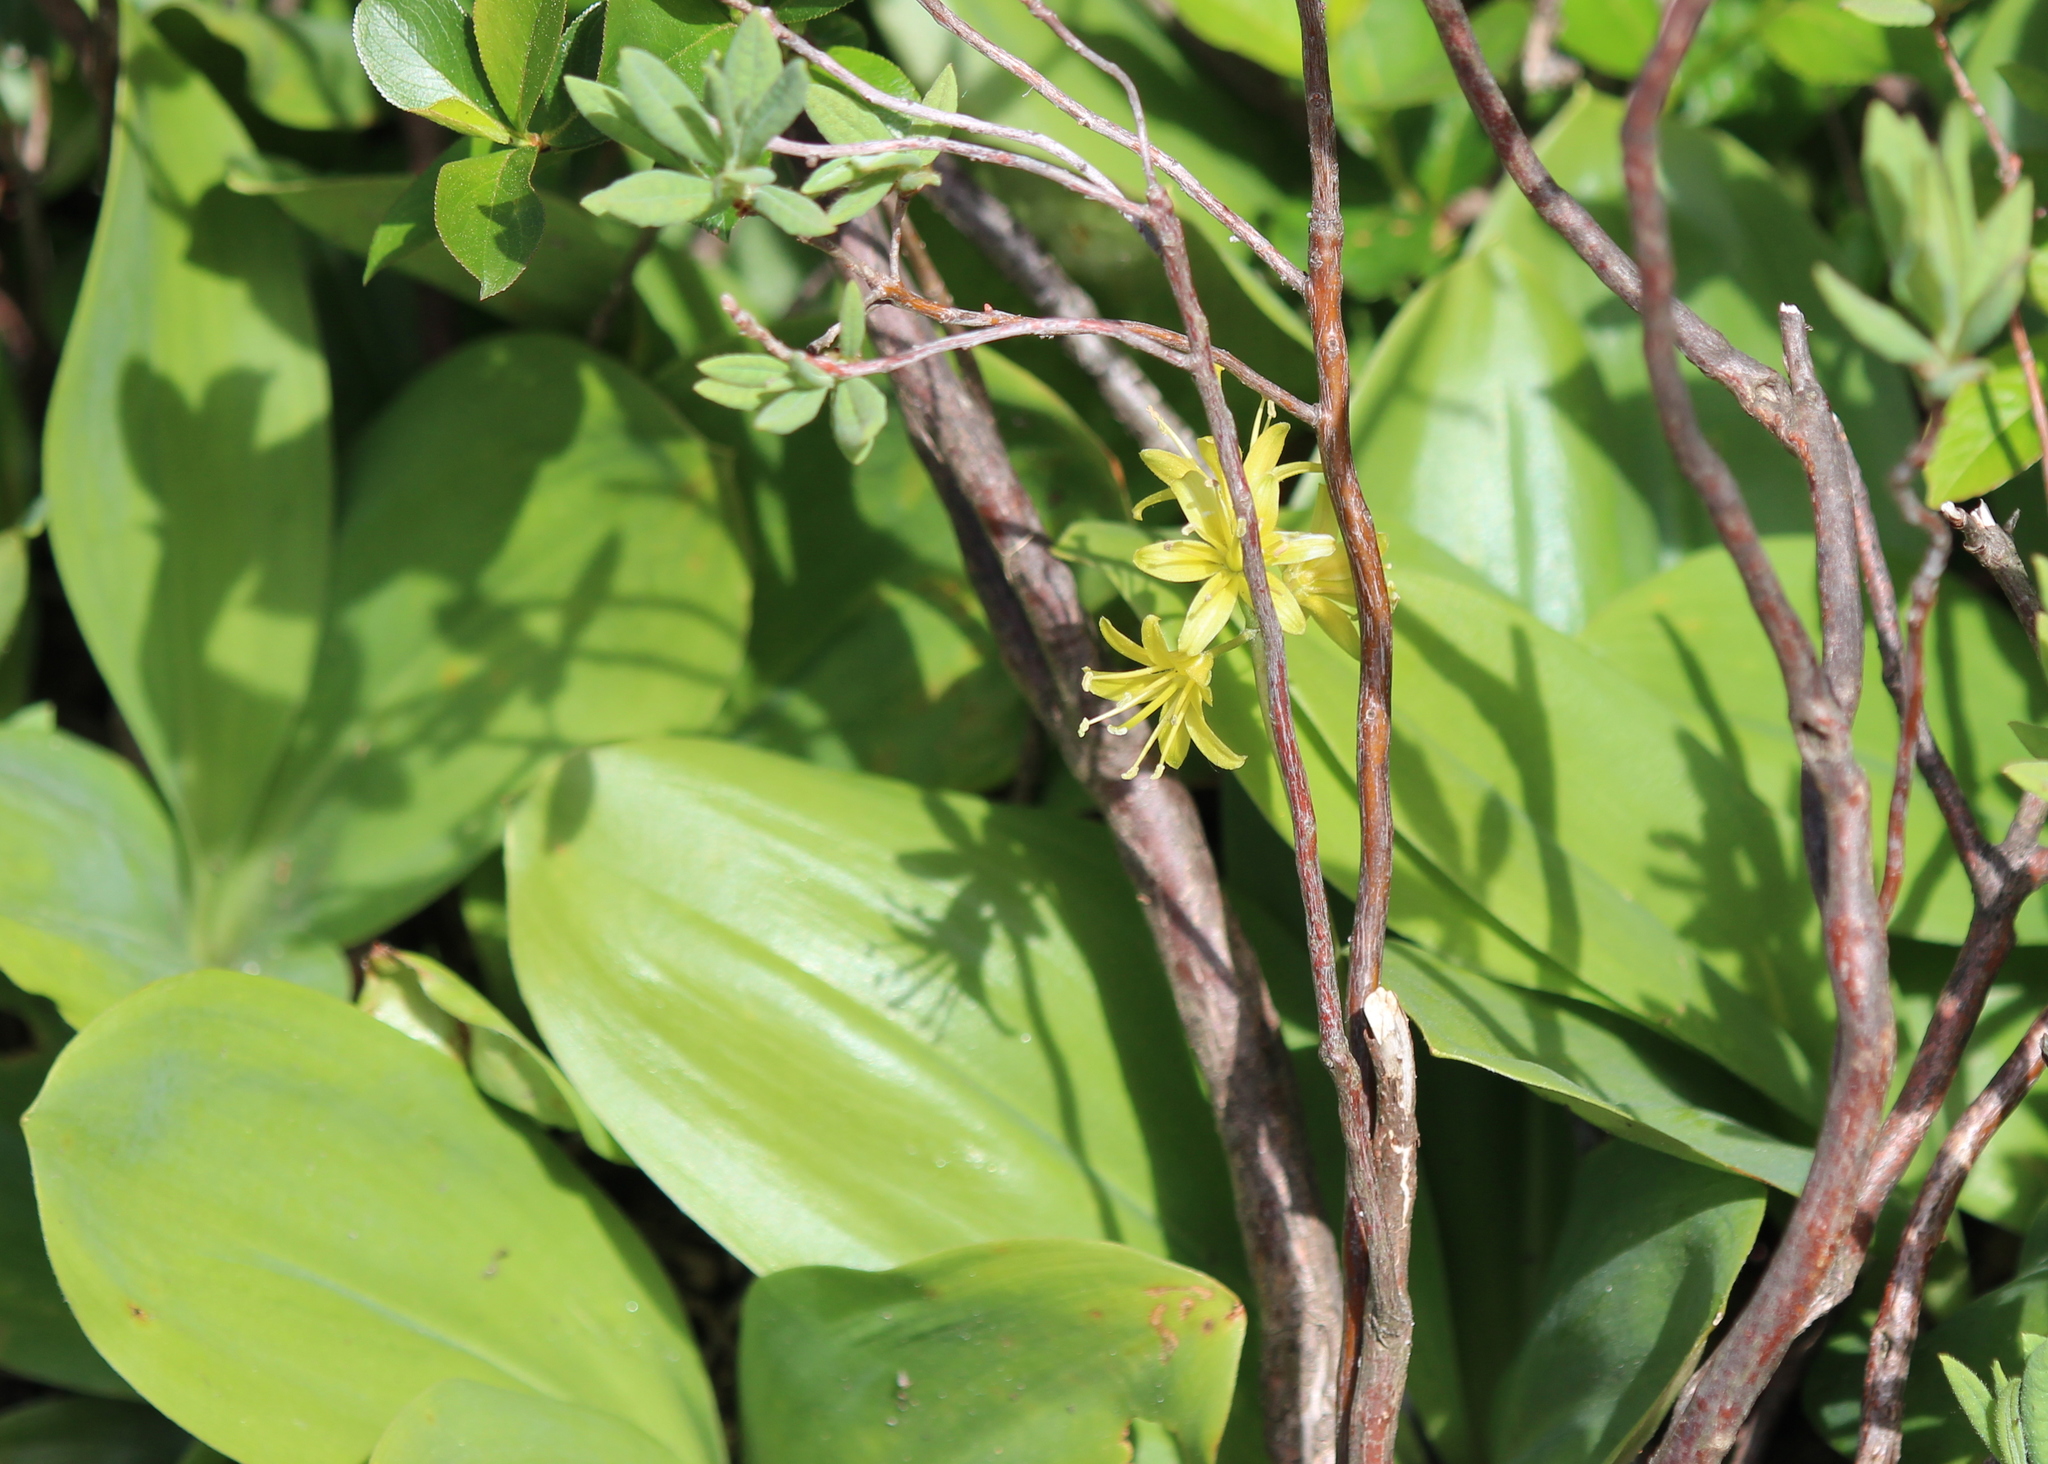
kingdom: Plantae
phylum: Tracheophyta
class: Liliopsida
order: Liliales
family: Liliaceae
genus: Clintonia
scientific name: Clintonia borealis
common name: Yellow clintonia
